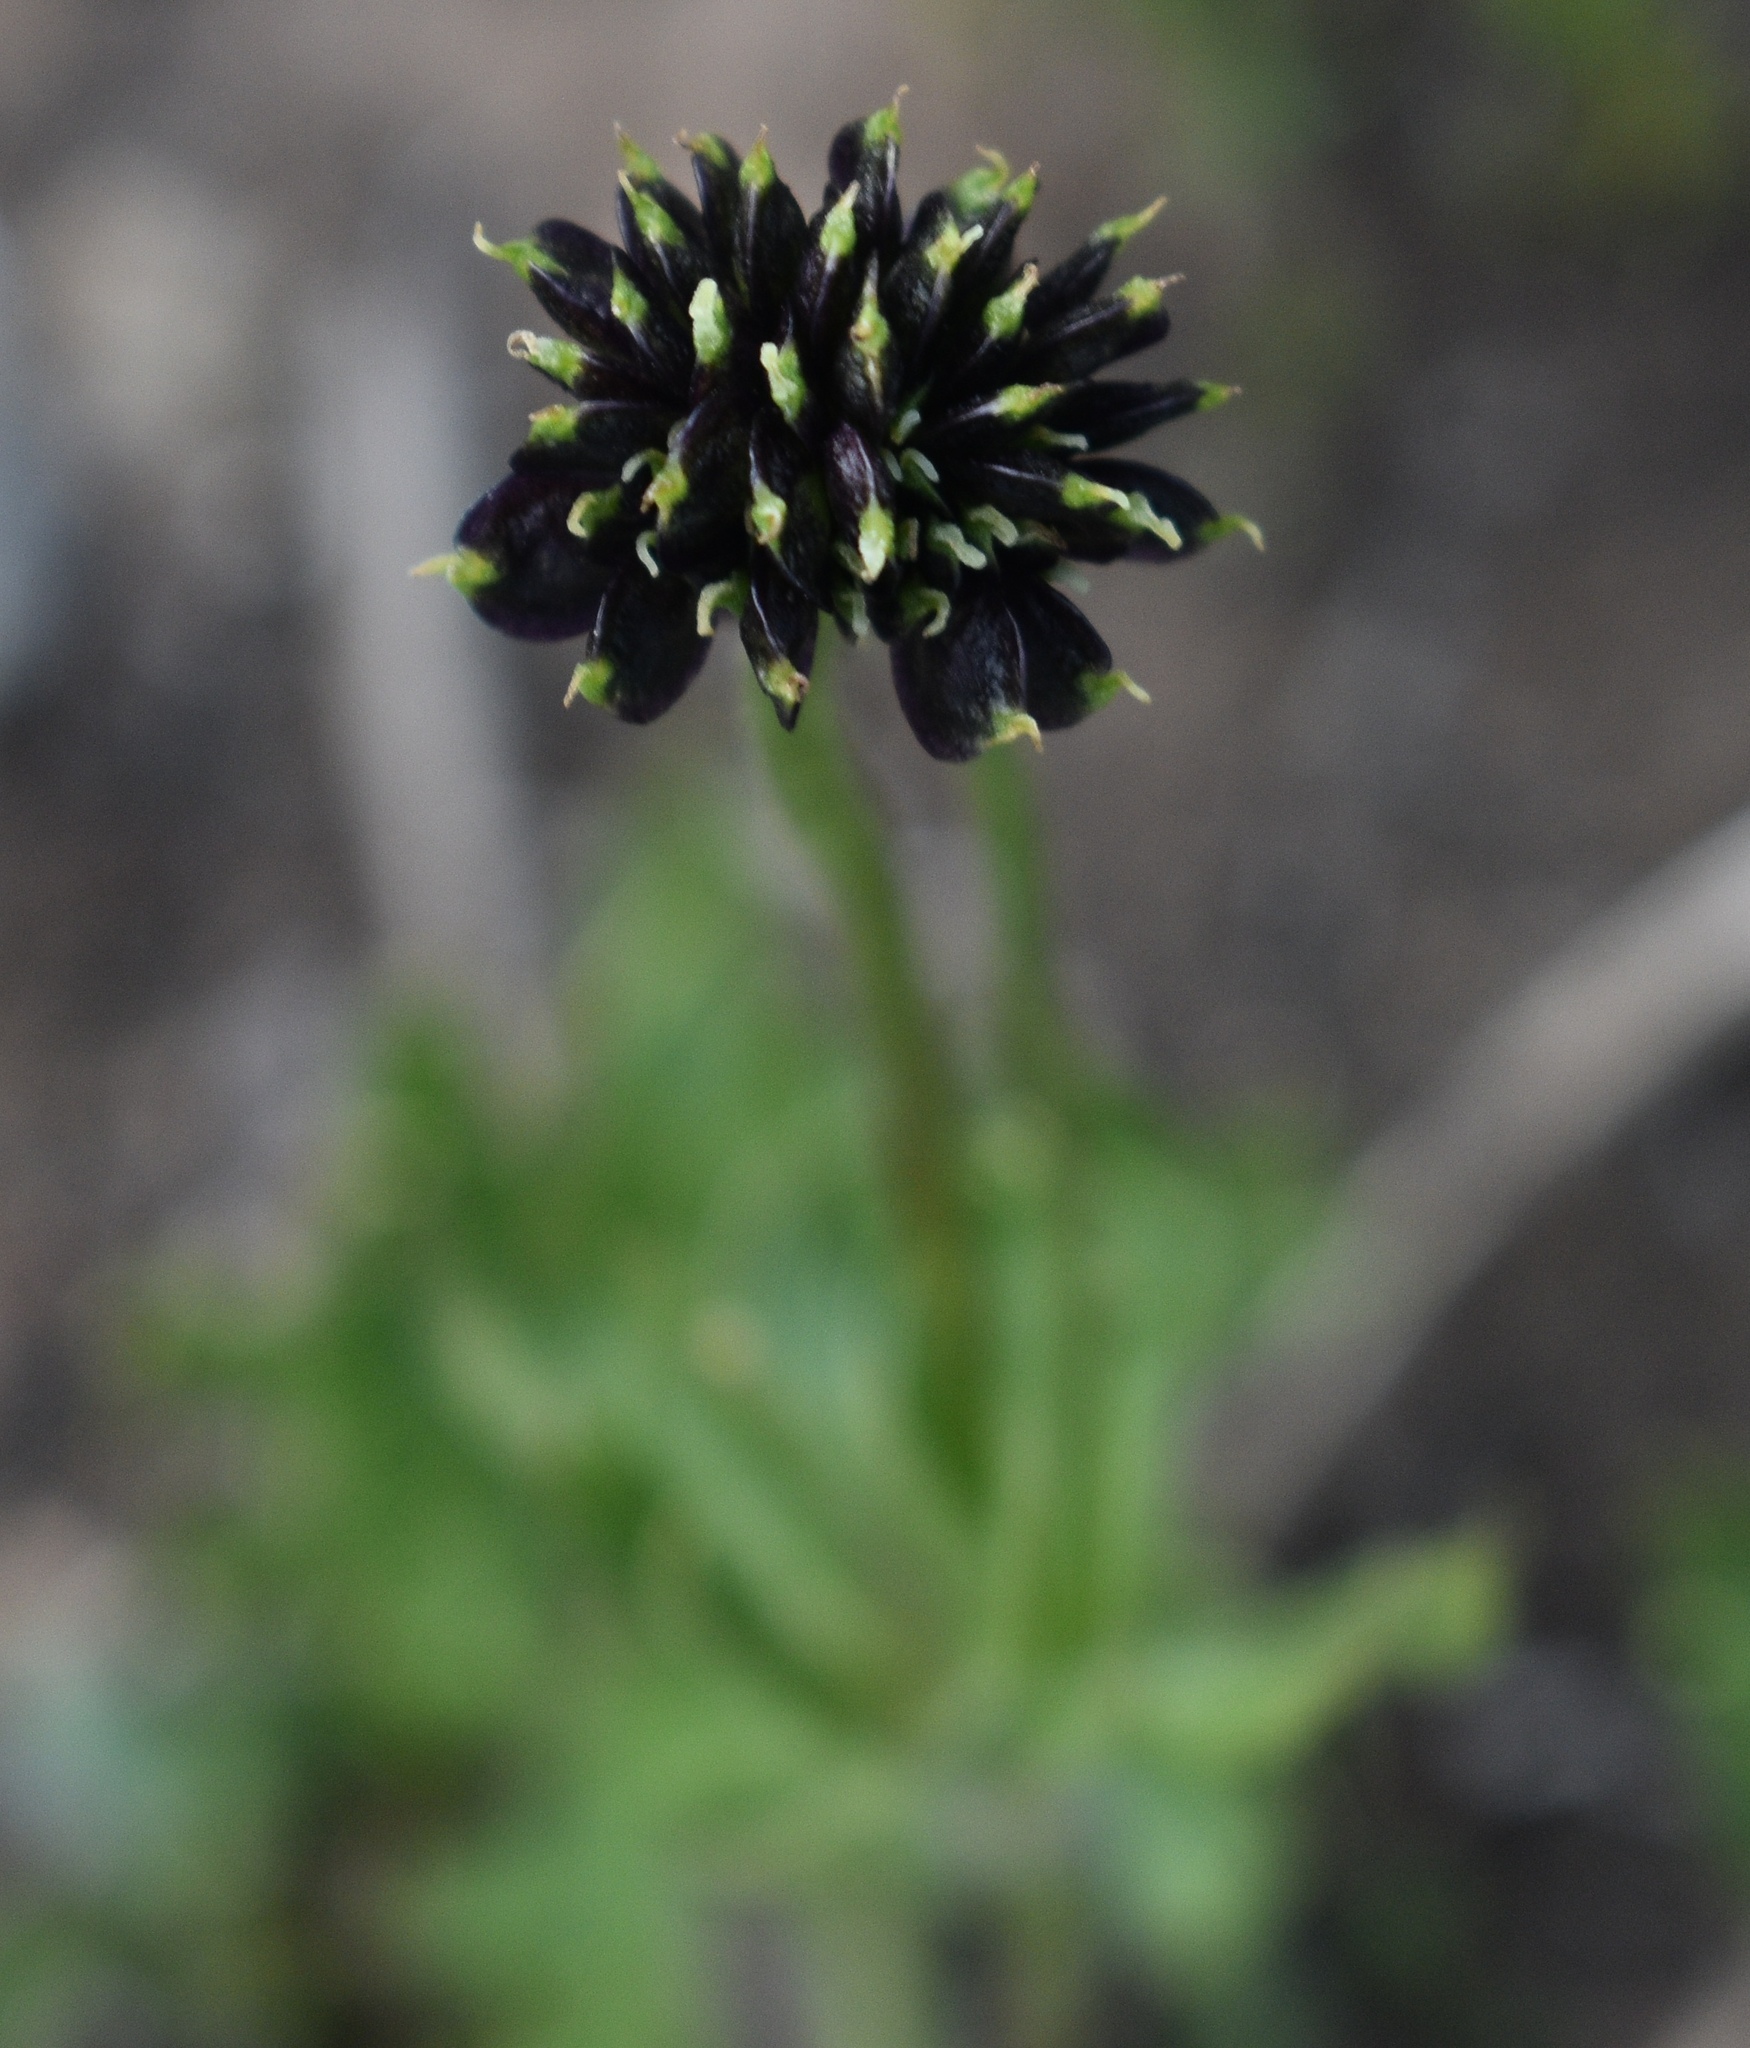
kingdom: Plantae
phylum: Tracheophyta
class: Magnoliopsida
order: Ranunculales
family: Ranunculaceae
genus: Anemonastrum
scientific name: Anemonastrum narcissiflorum
